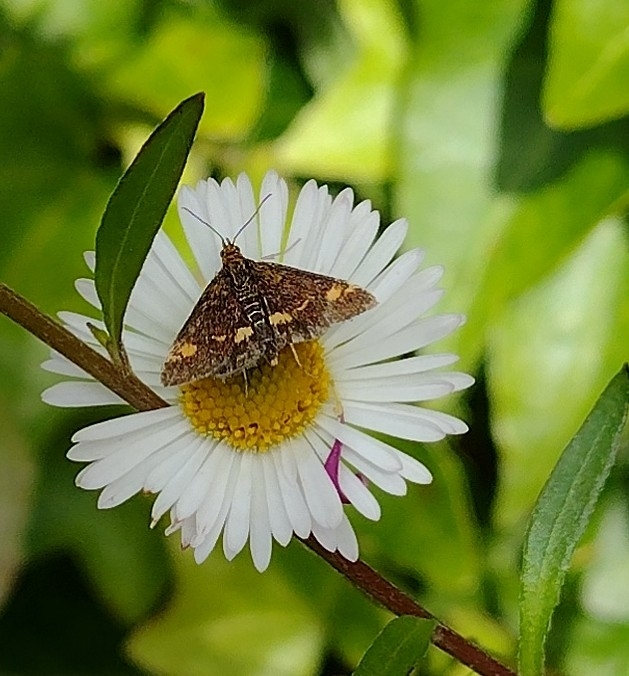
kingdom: Animalia
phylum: Arthropoda
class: Insecta
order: Lepidoptera
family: Crambidae
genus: Pyrausta
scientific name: Pyrausta aurata
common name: Small purple & gold
